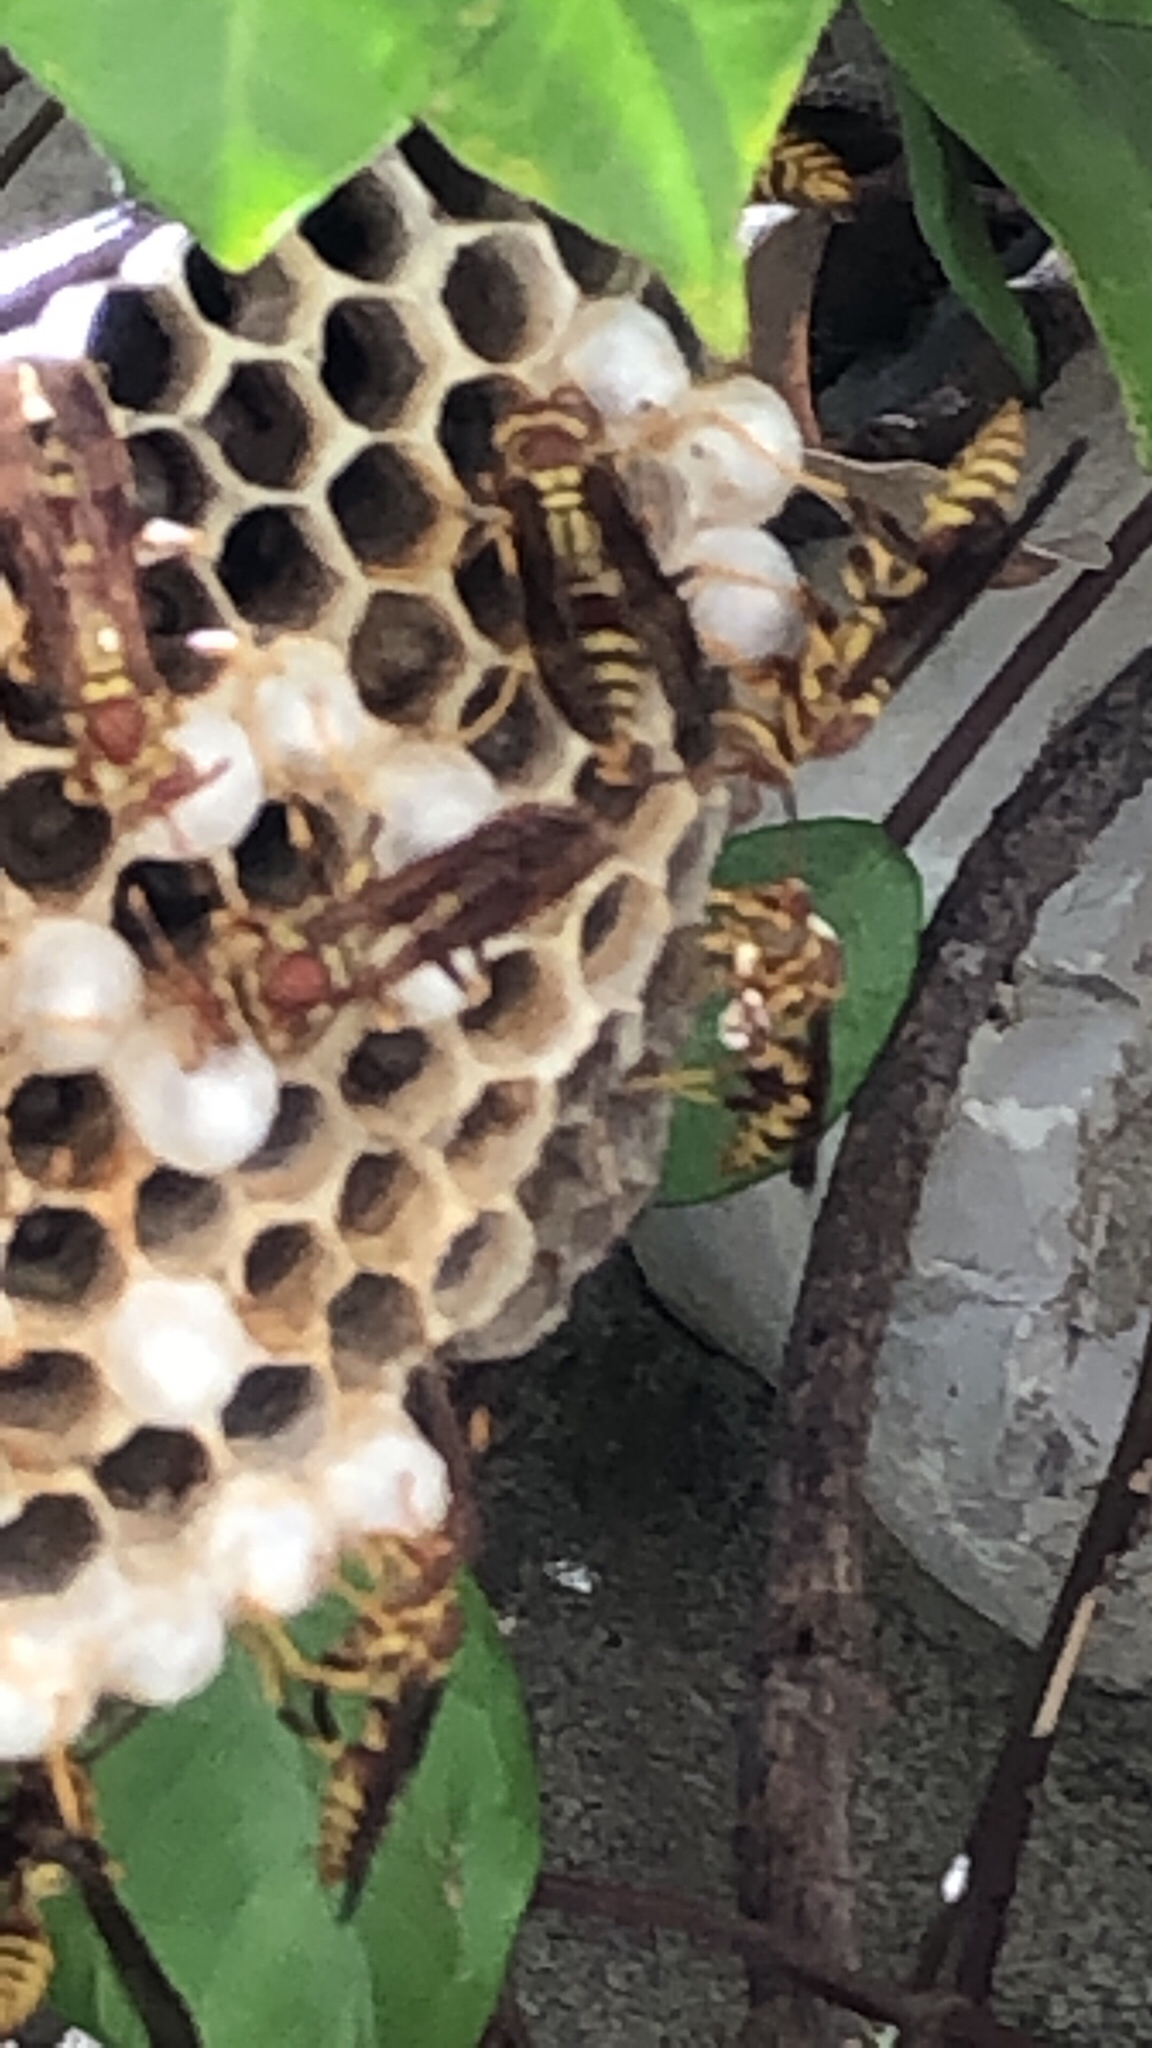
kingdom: Animalia
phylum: Arthropoda
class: Insecta
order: Hymenoptera
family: Eumenidae
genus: Polistes
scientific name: Polistes exclamans
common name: Paper wasp
